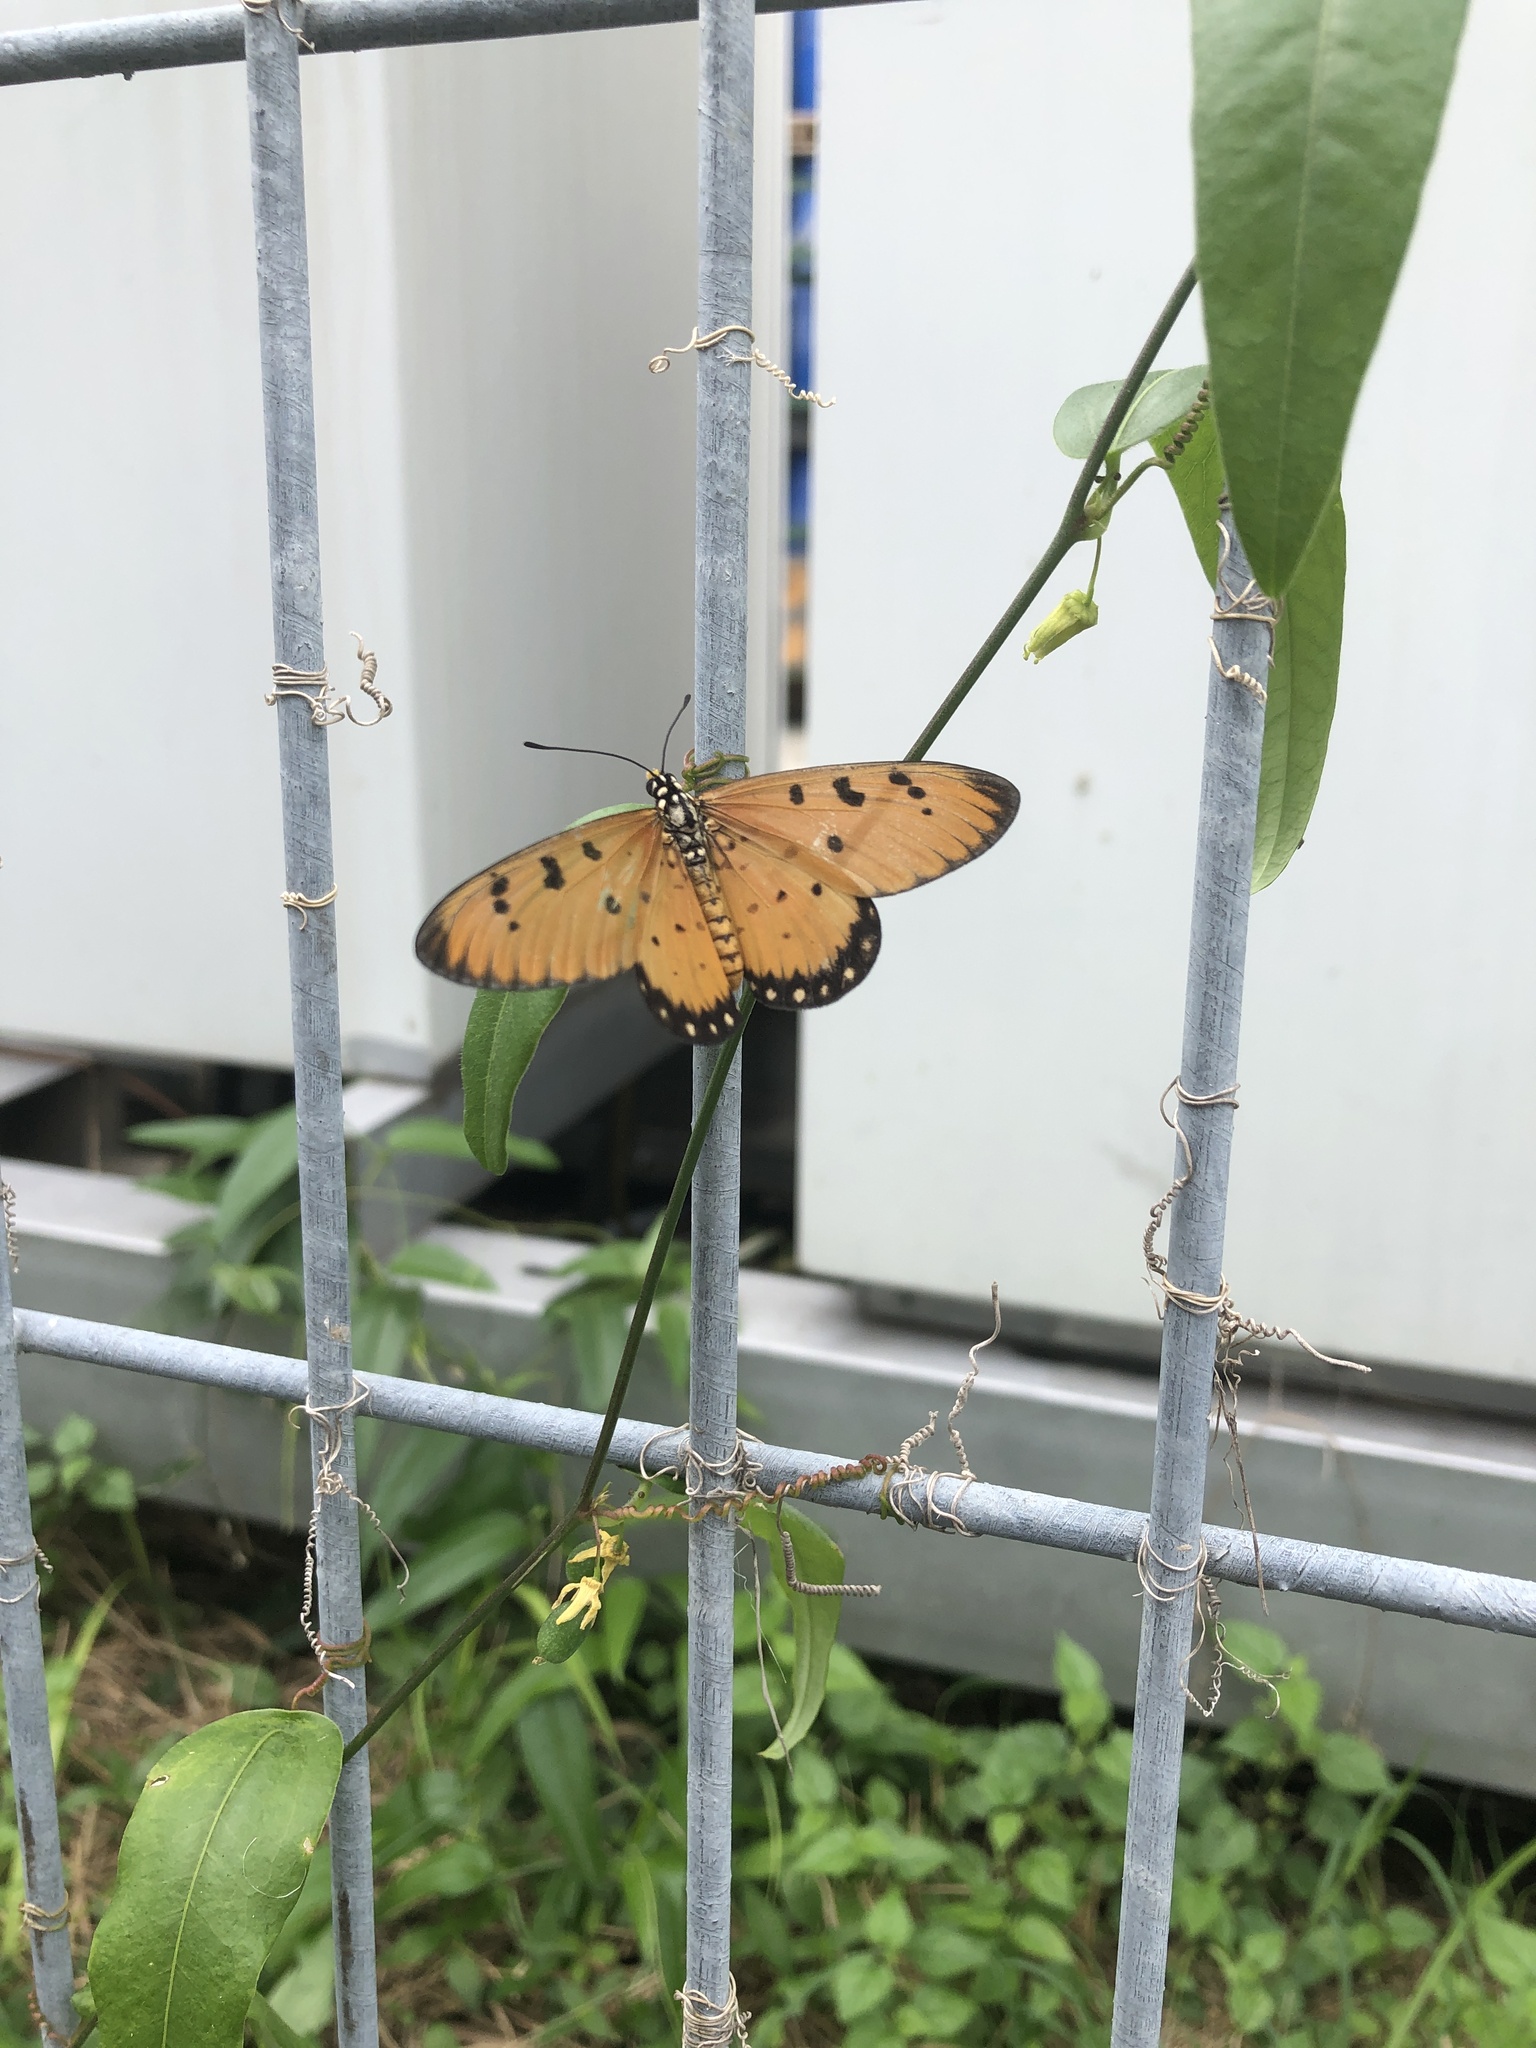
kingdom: Animalia
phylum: Arthropoda
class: Insecta
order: Lepidoptera
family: Nymphalidae
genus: Acraea
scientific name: Acraea terpsicore
